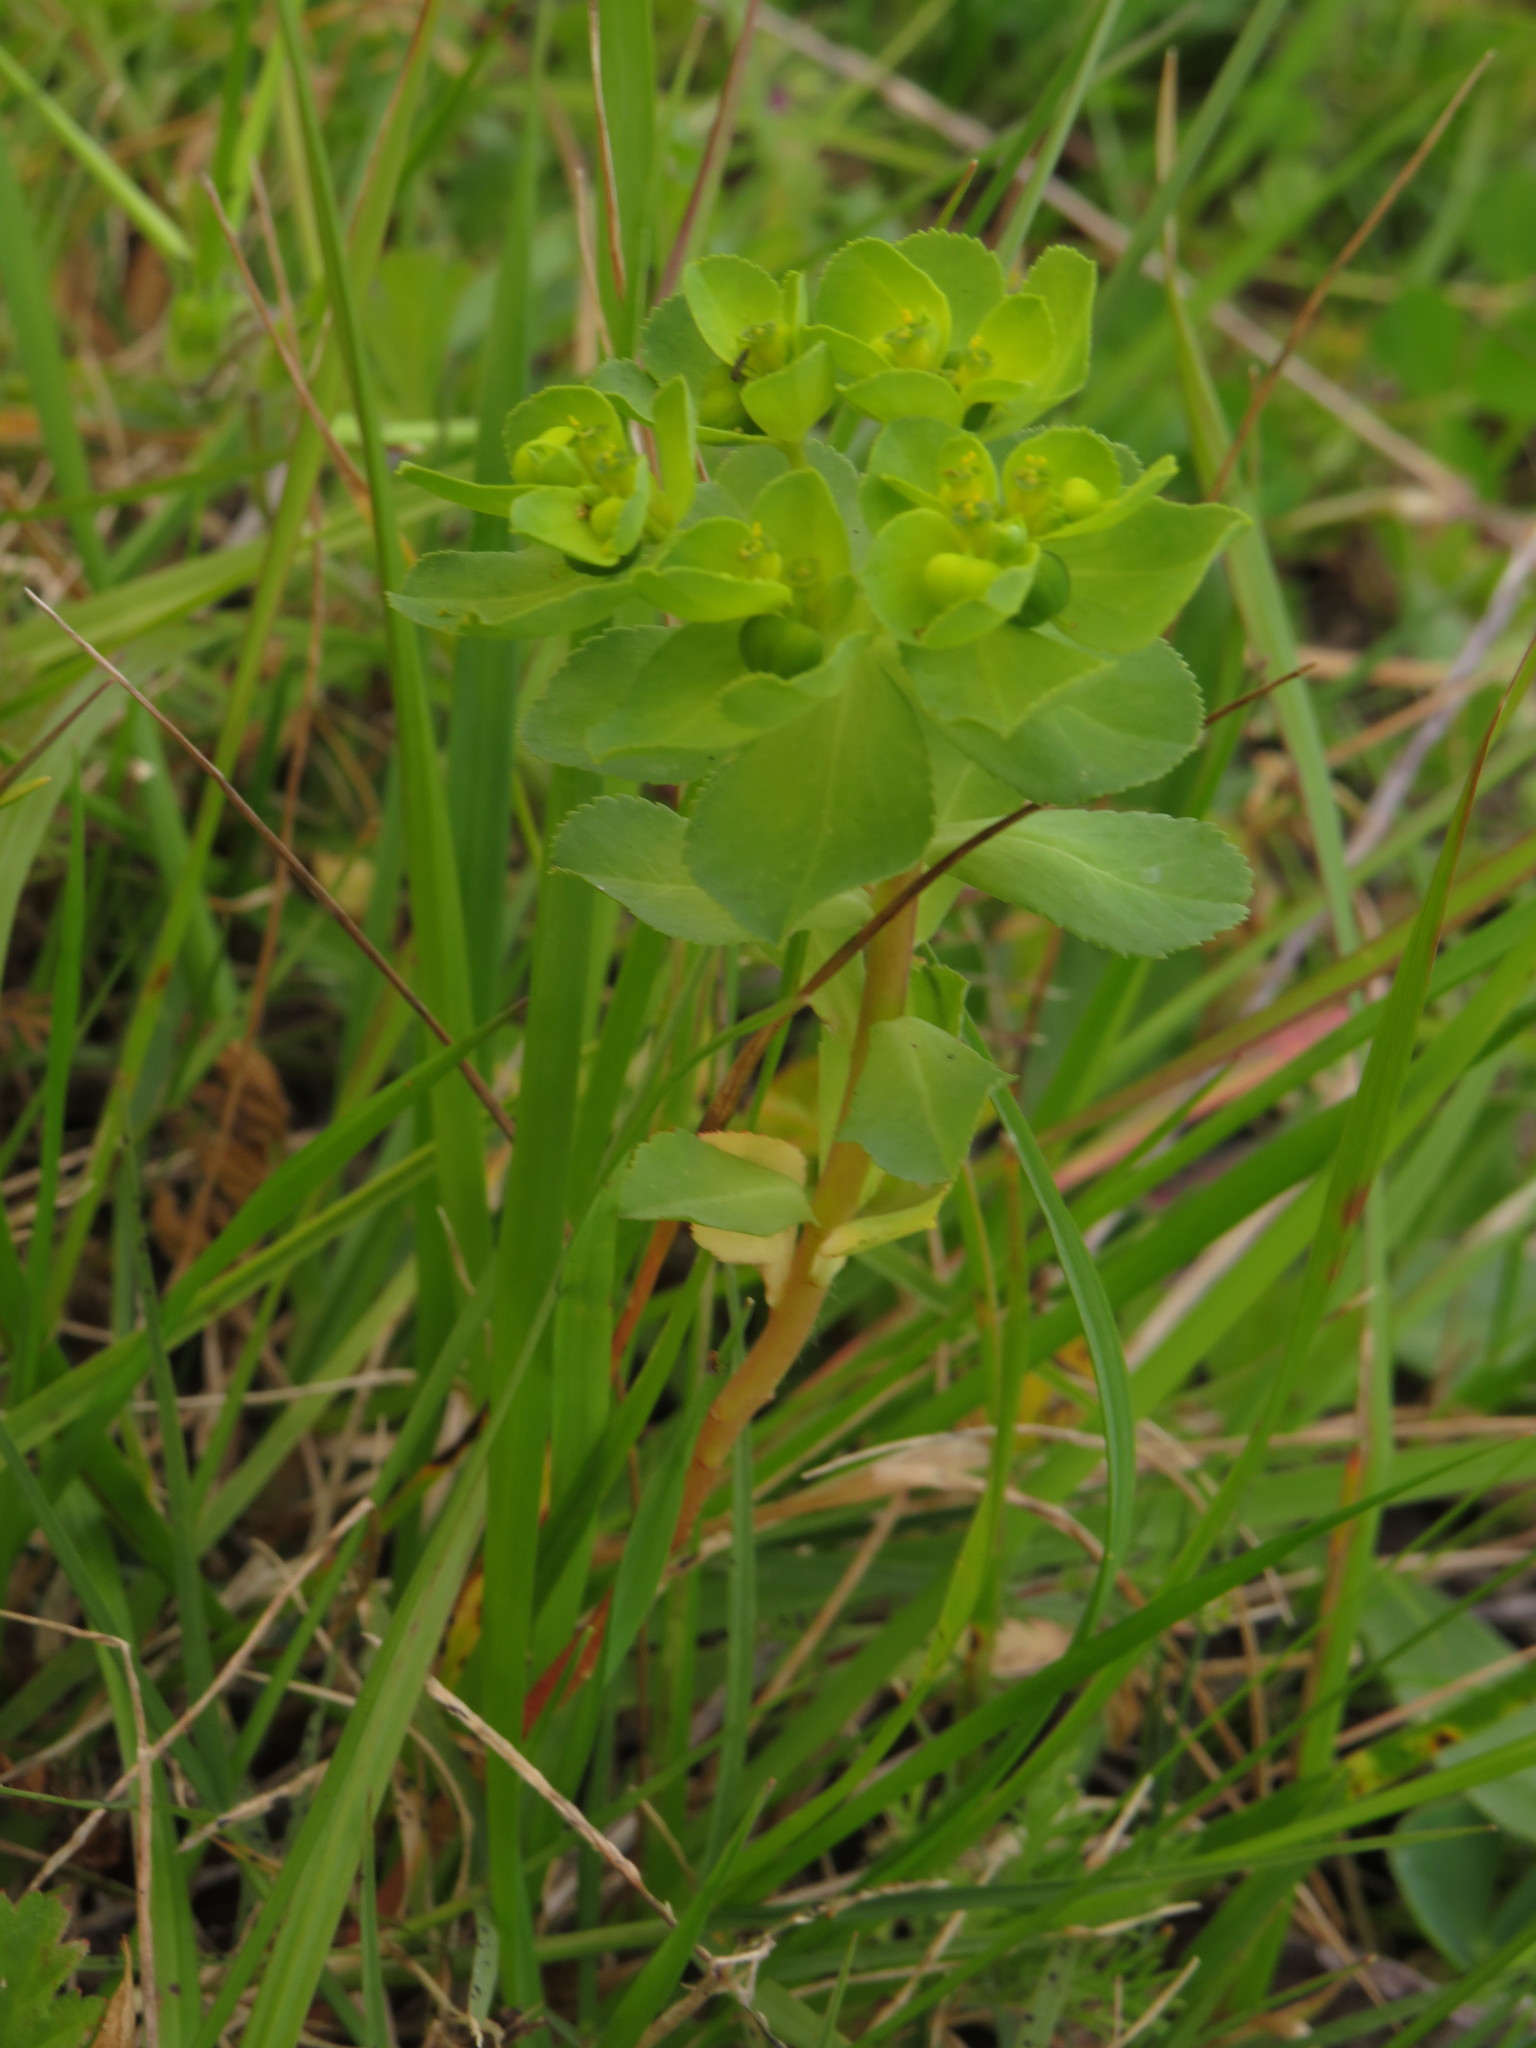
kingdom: Plantae
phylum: Tracheophyta
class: Magnoliopsida
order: Malpighiales
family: Euphorbiaceae
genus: Euphorbia
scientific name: Euphorbia helioscopia
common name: Sun spurge
